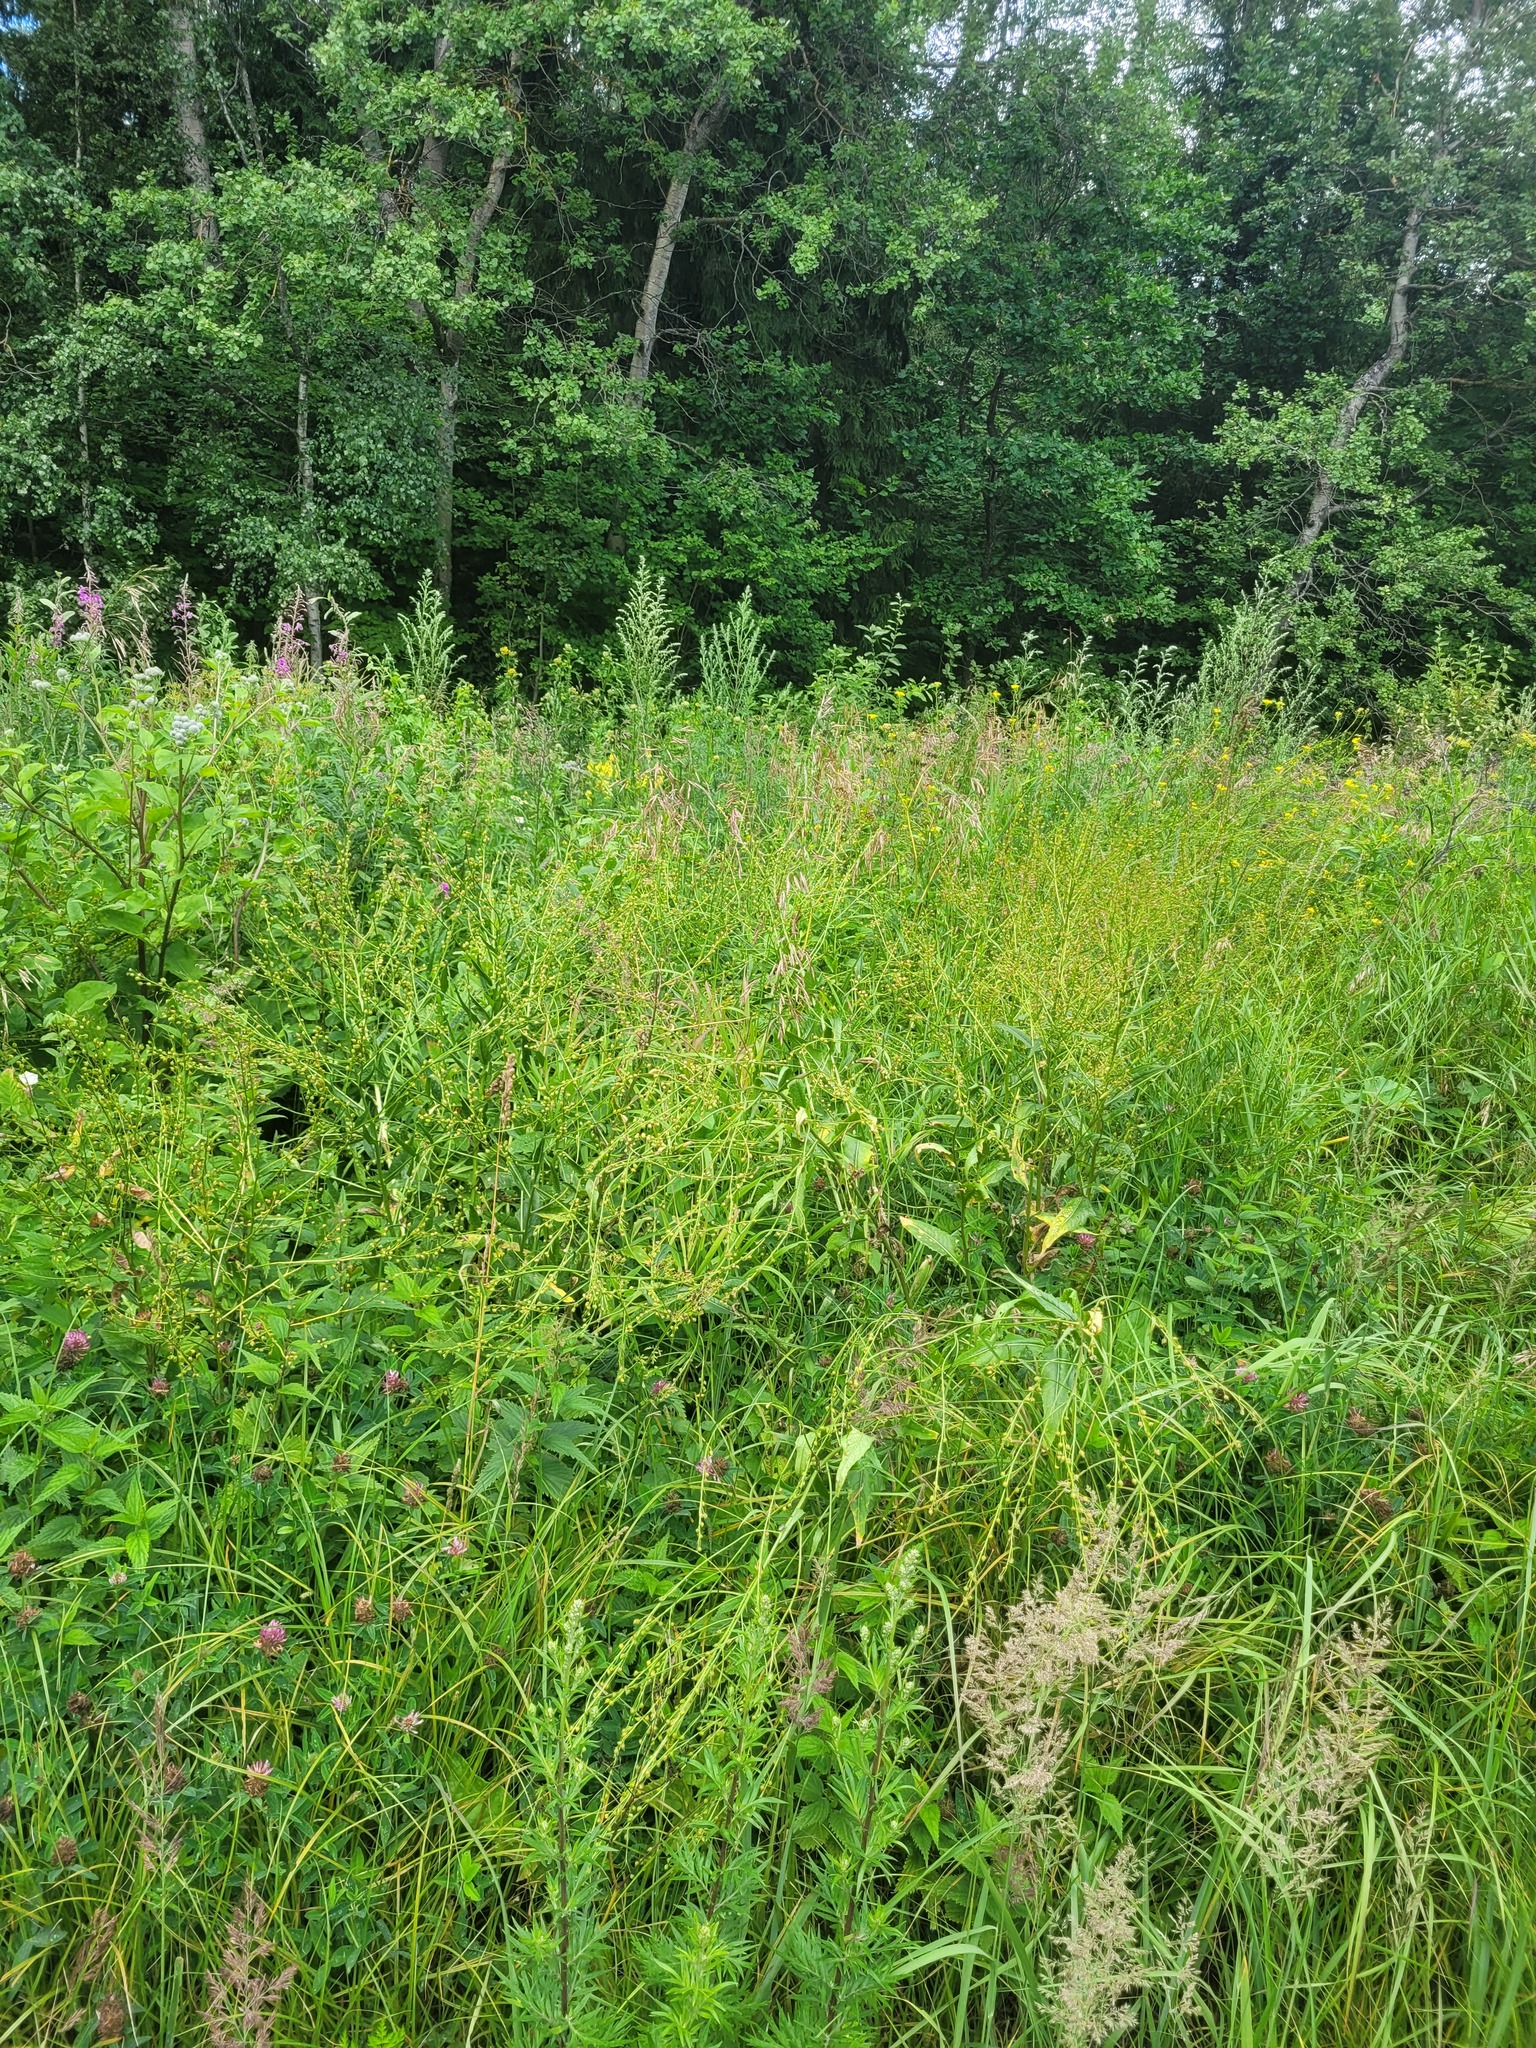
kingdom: Plantae
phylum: Tracheophyta
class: Magnoliopsida
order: Brassicales
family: Brassicaceae
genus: Bunias
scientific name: Bunias orientalis
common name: Warty-cabbage
